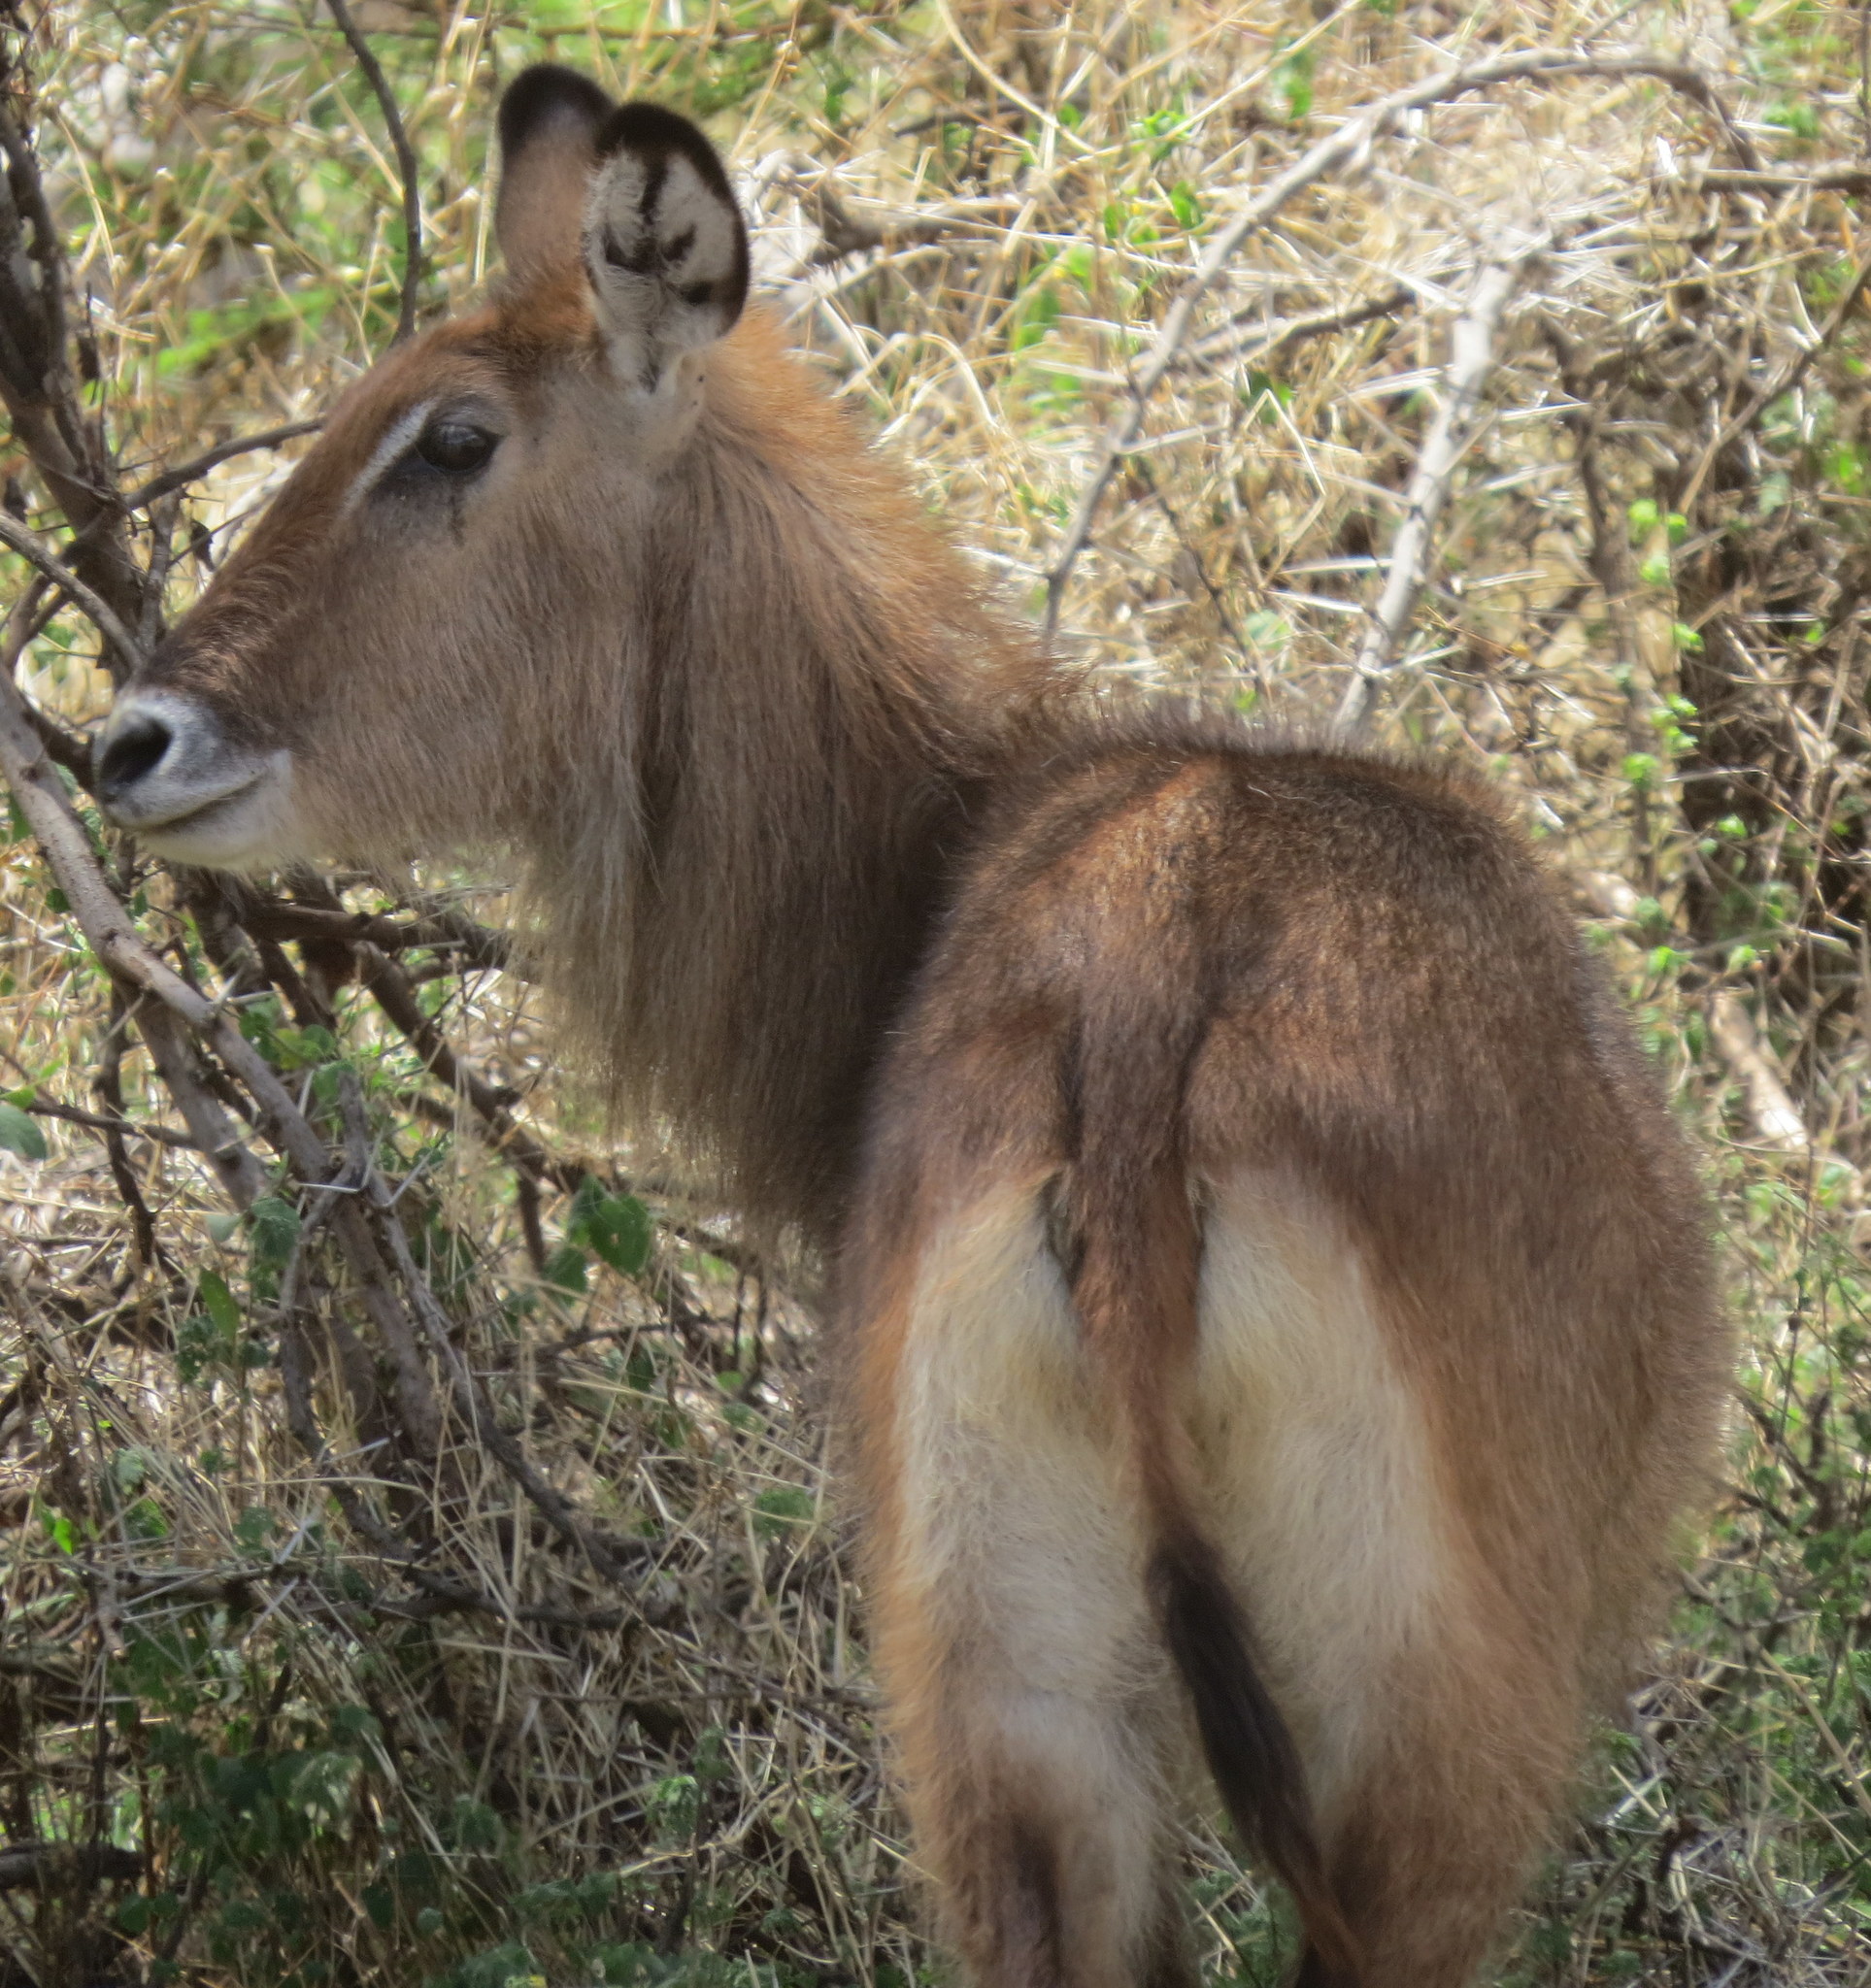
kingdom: Animalia
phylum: Chordata
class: Mammalia
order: Artiodactyla
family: Bovidae
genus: Kobus
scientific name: Kobus ellipsiprymnus
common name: Waterbuck
